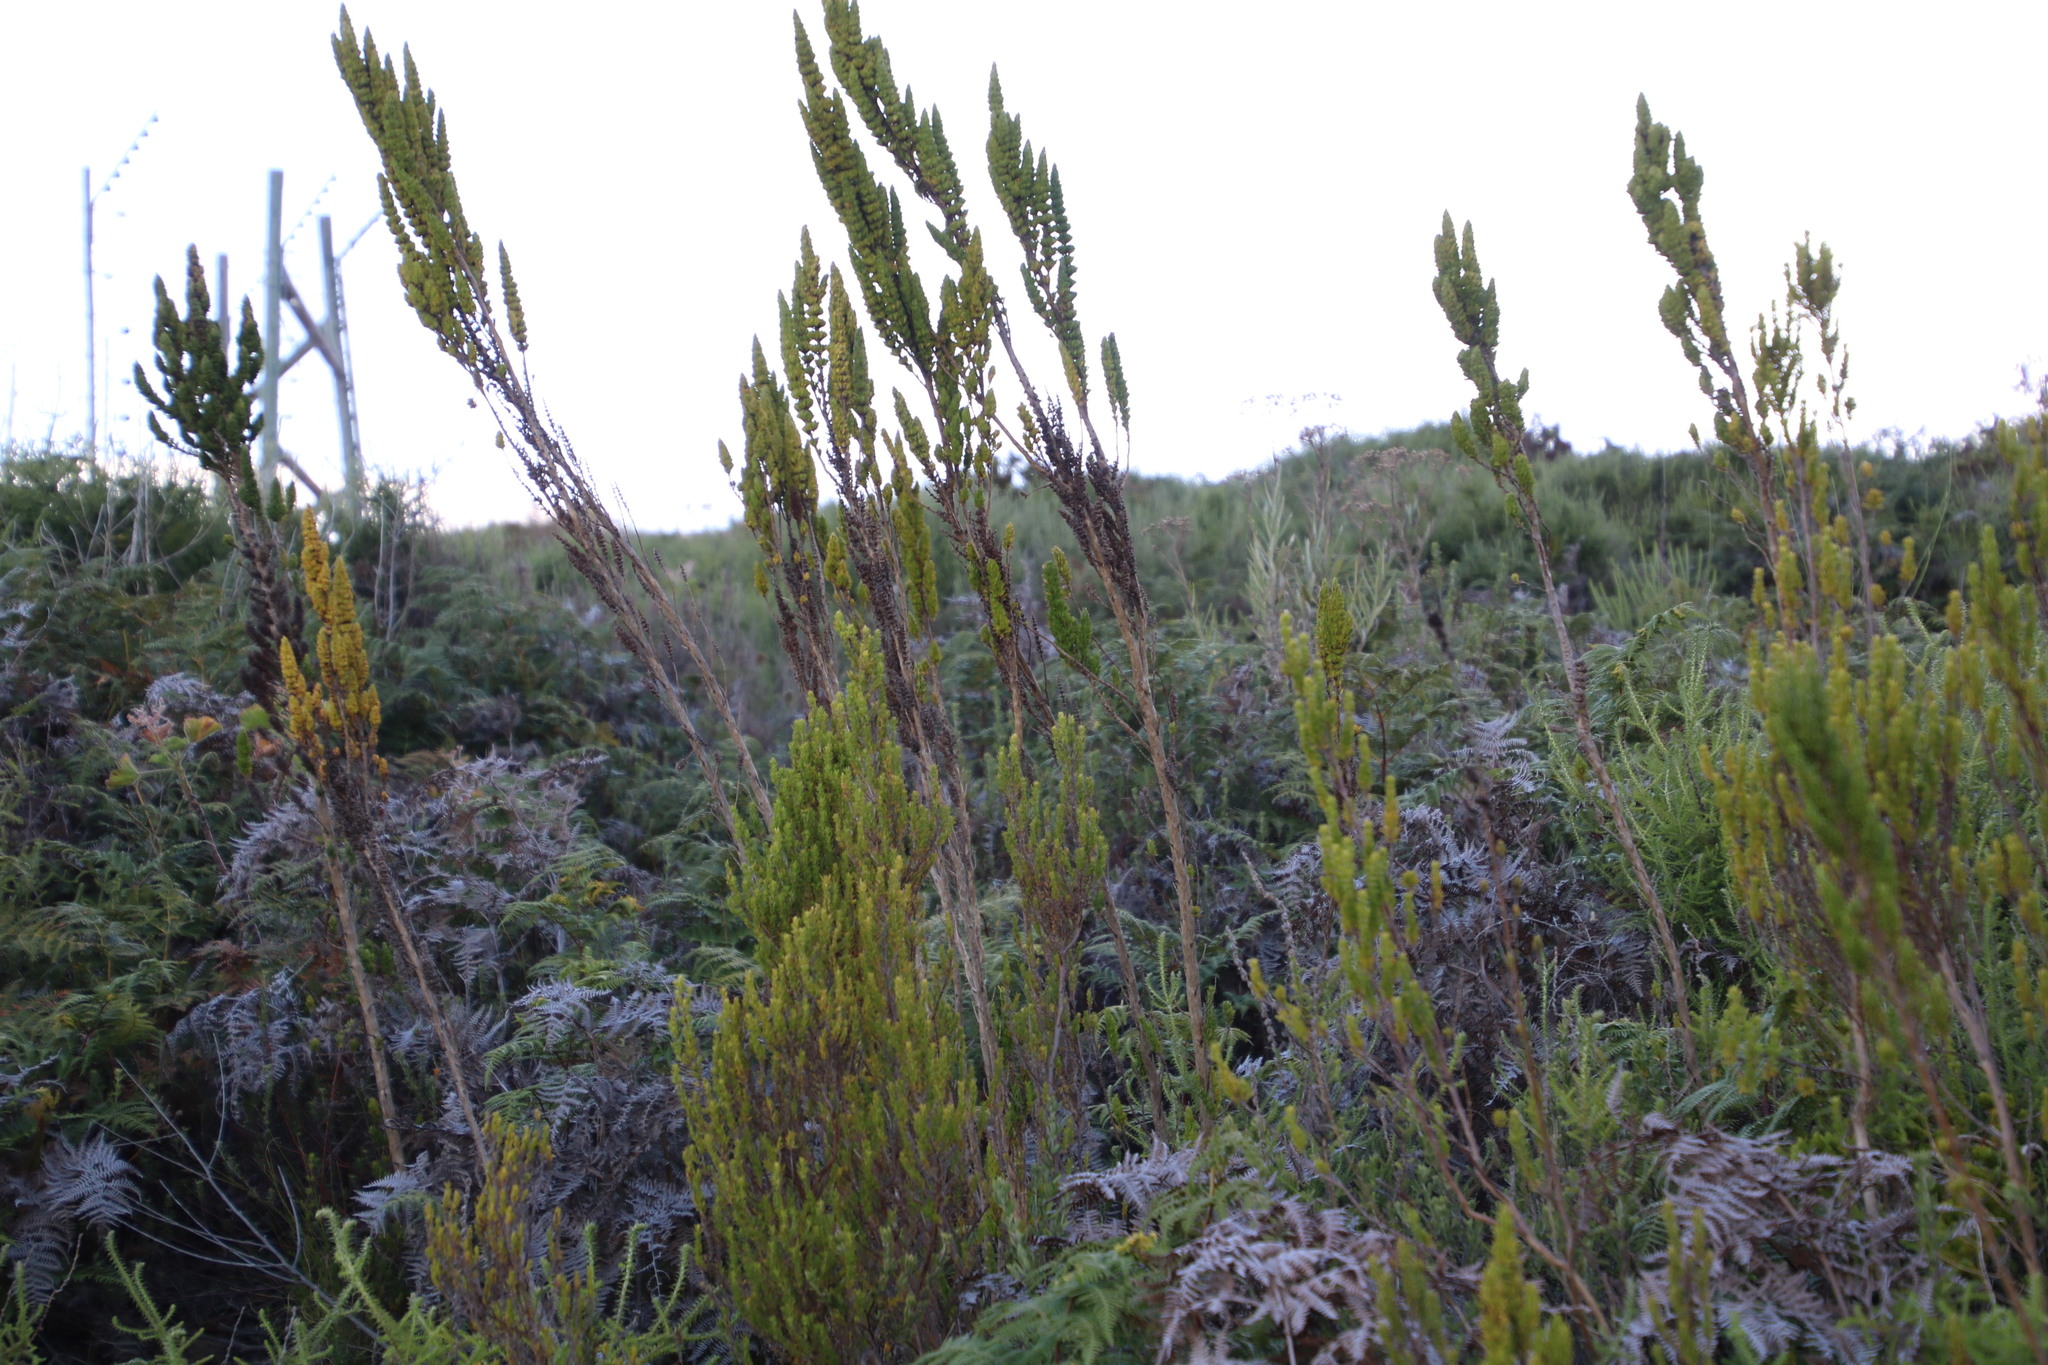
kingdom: Plantae
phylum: Tracheophyta
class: Magnoliopsida
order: Gentianales
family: Rubiaceae
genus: Anthospermum
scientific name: Anthospermum aethiopicum
